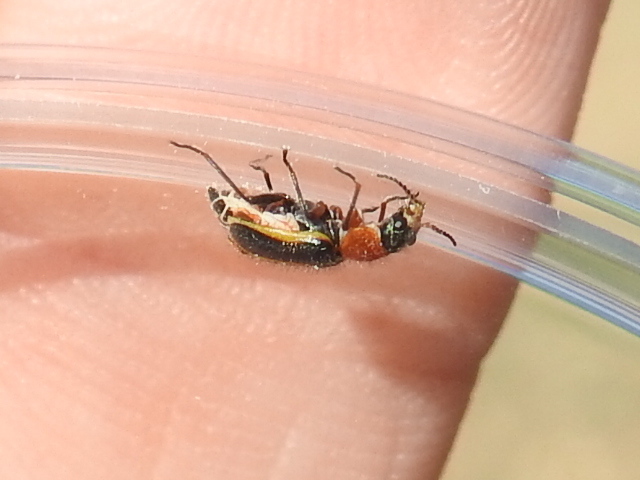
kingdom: Animalia
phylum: Arthropoda
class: Insecta
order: Coleoptera
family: Melyridae
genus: Collops
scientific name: Collops
